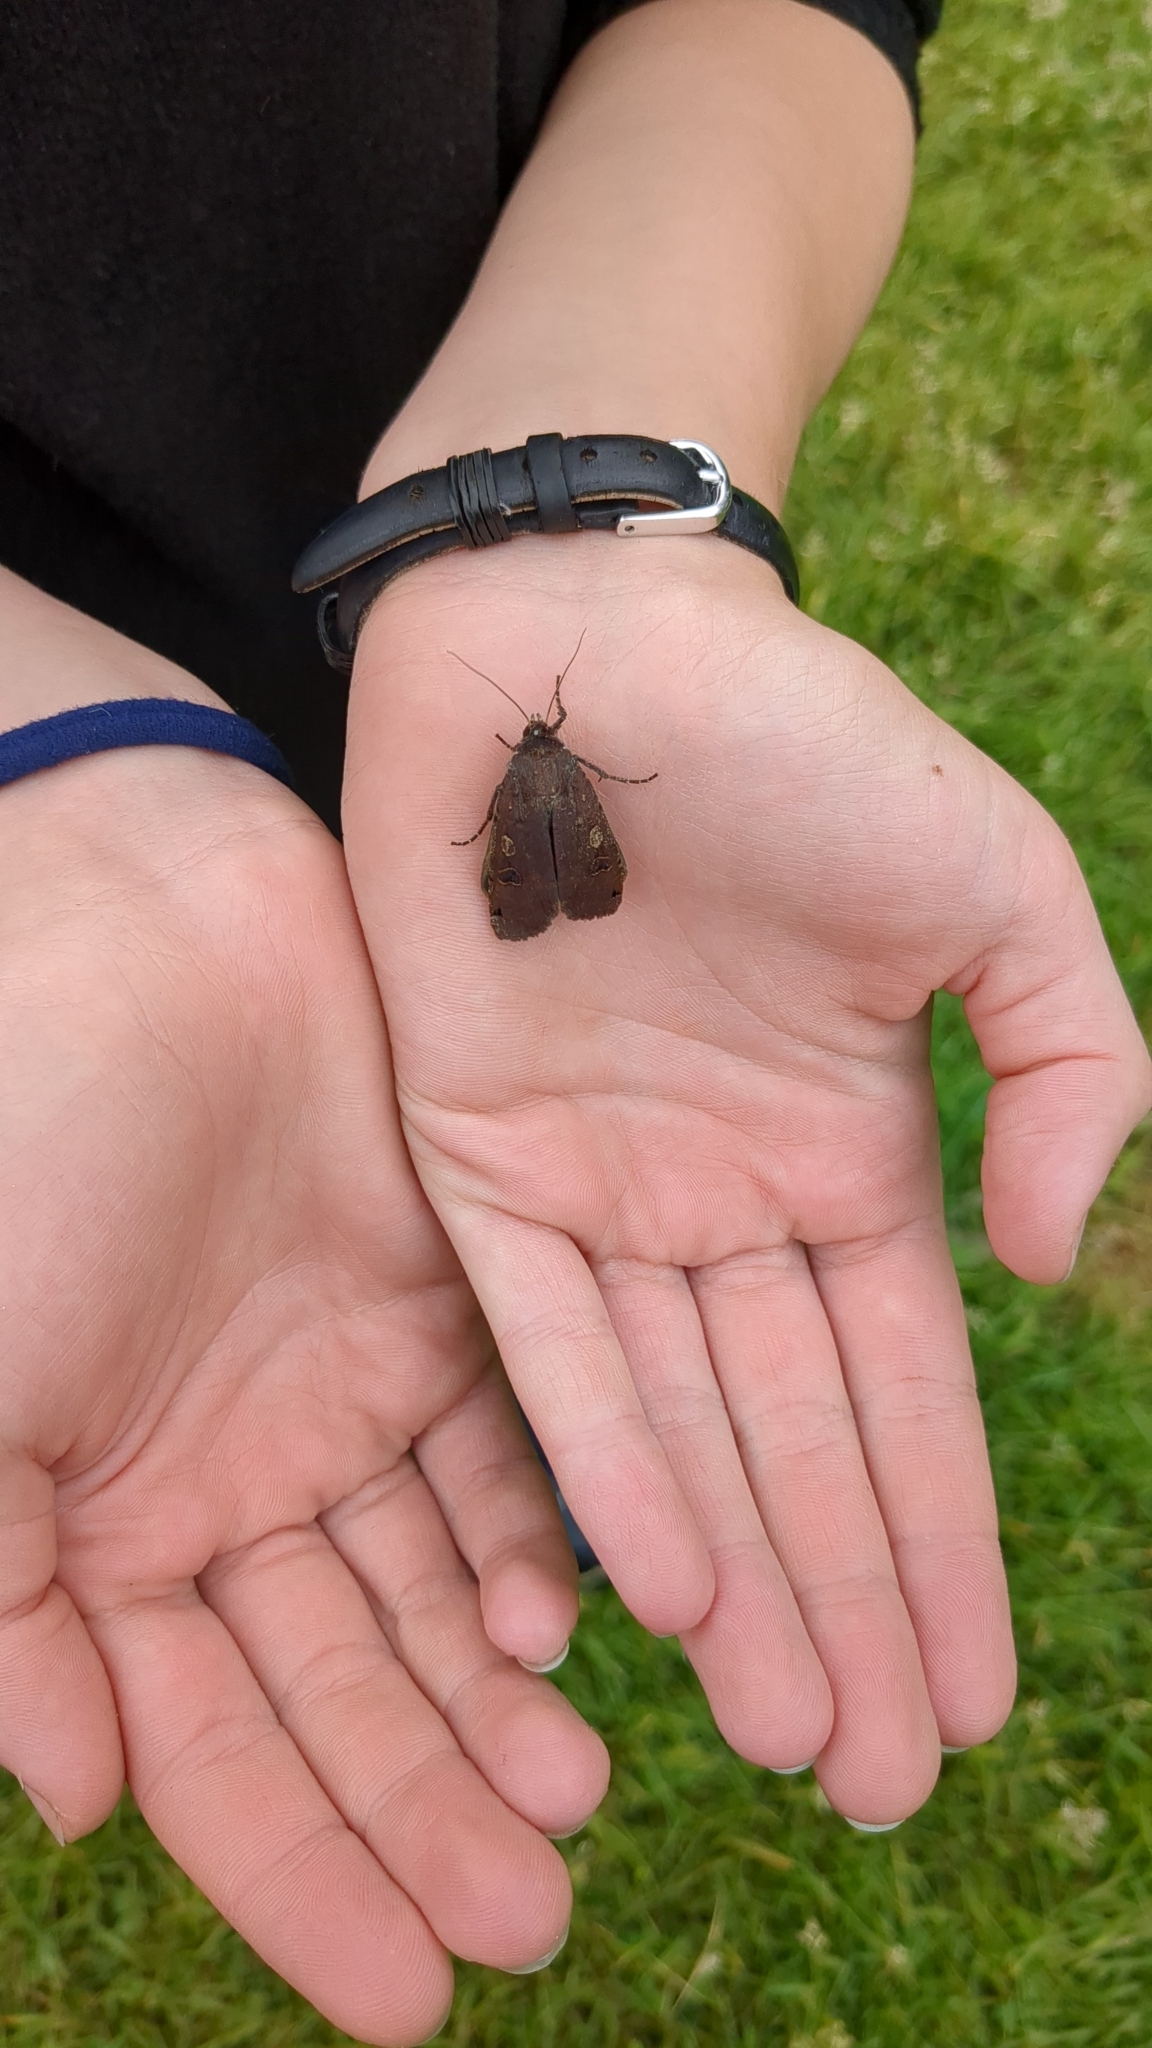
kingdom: Animalia
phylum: Arthropoda
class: Insecta
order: Lepidoptera
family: Noctuidae
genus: Noctua
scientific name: Noctua pronuba
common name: Large yellow underwing
